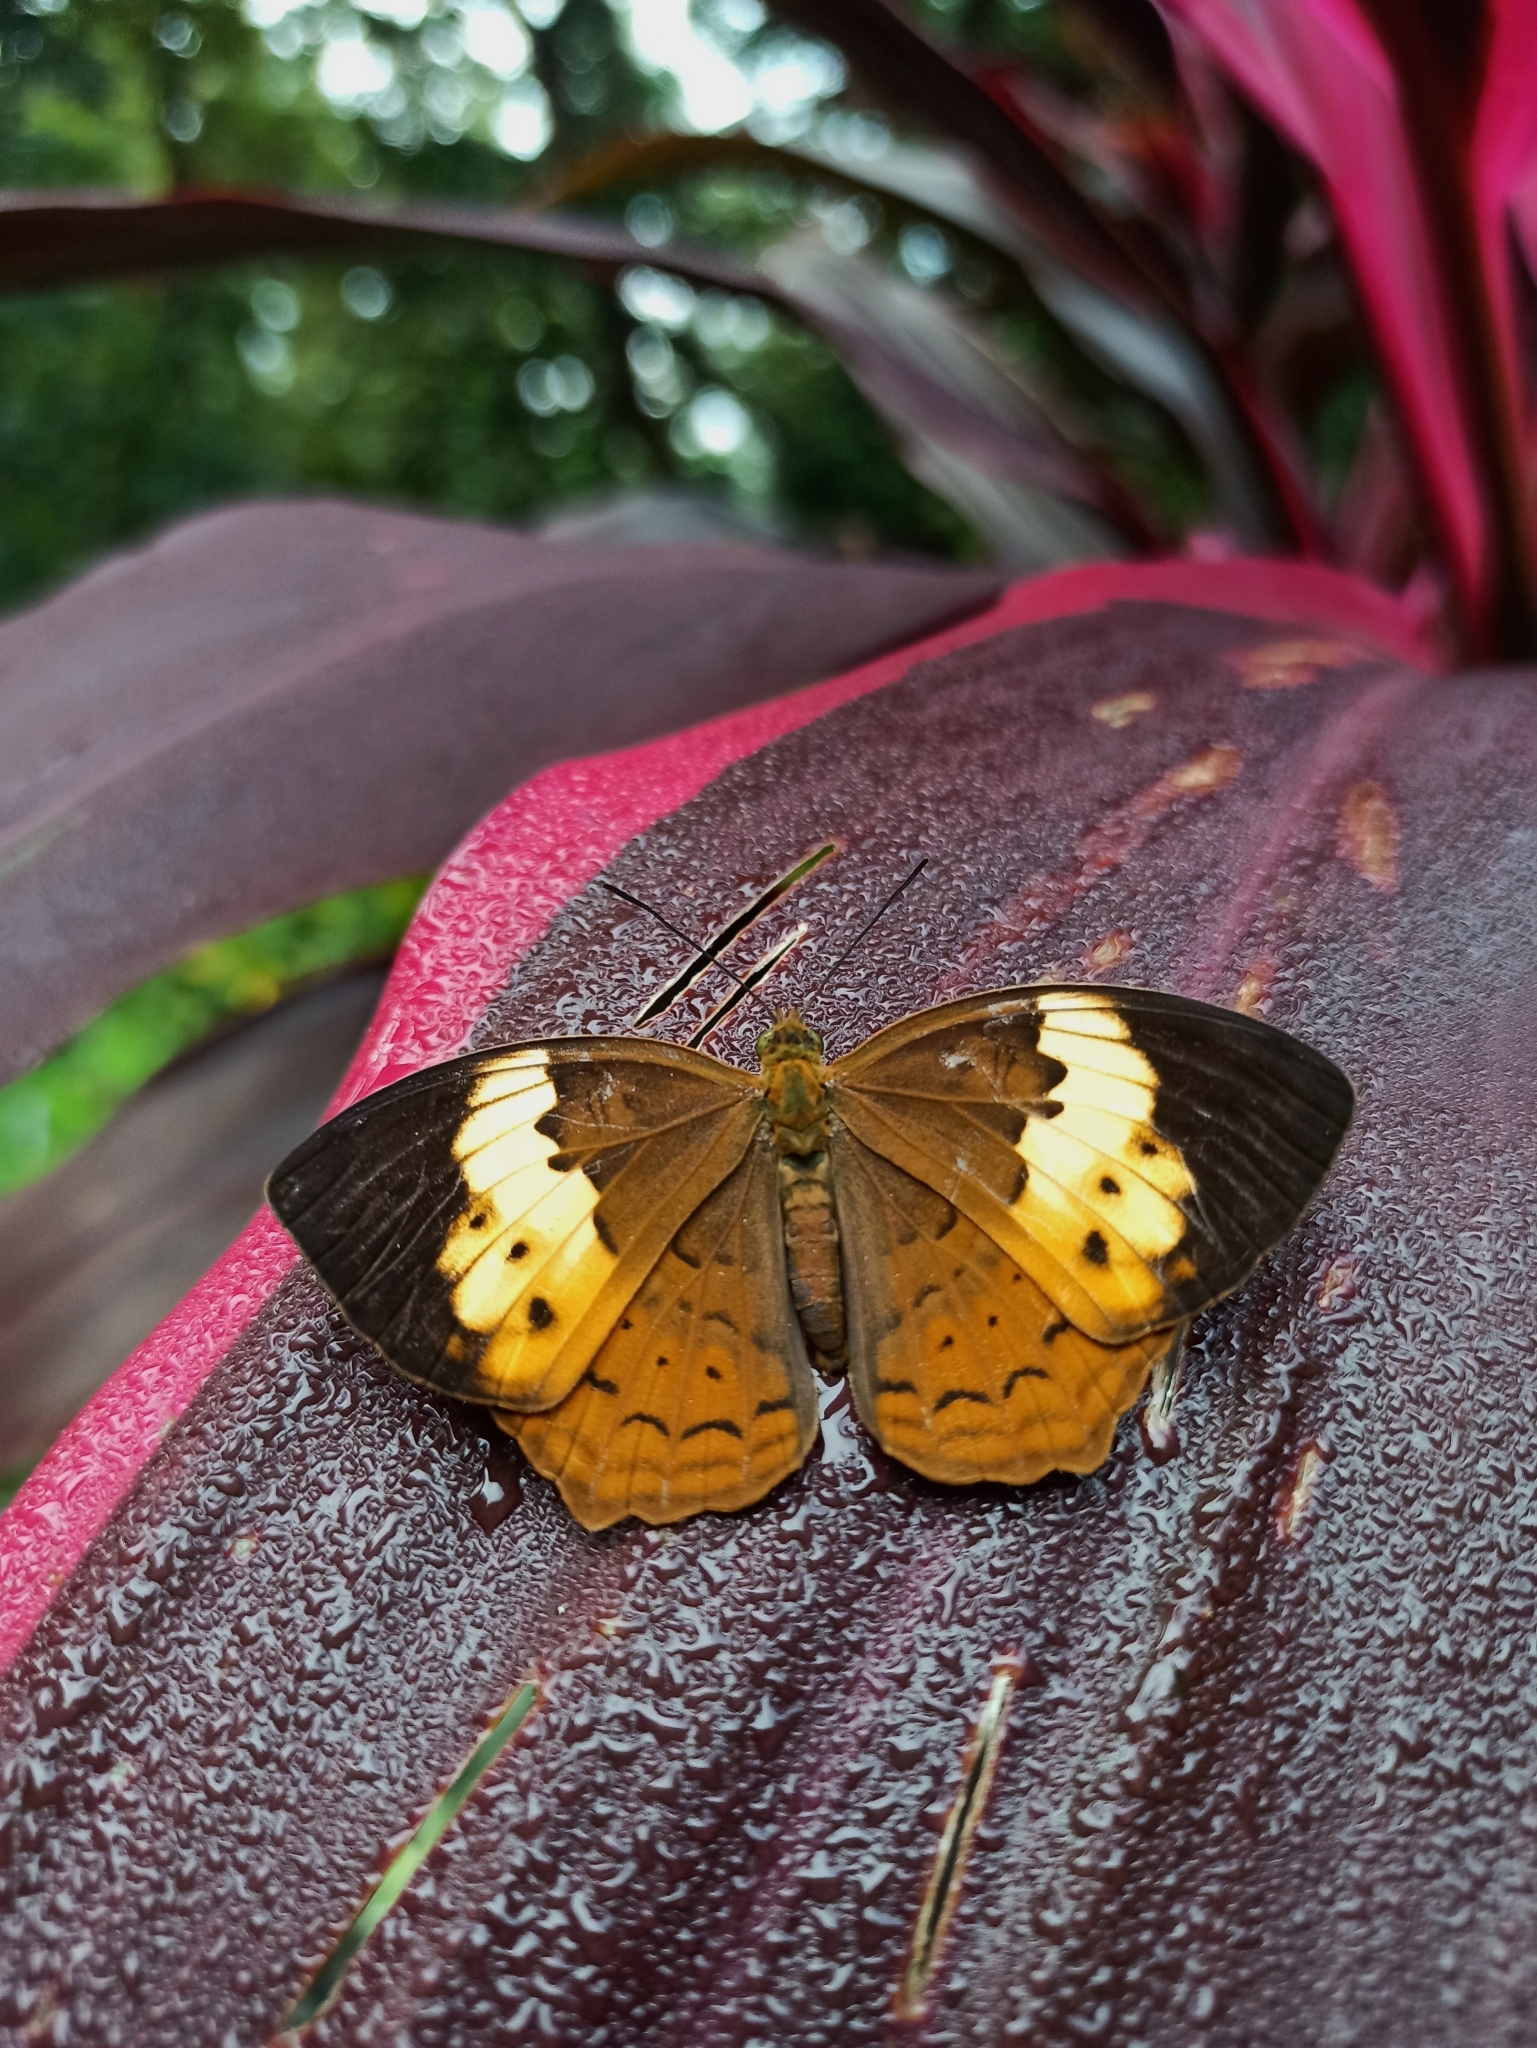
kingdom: Animalia
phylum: Arthropoda
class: Insecta
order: Lepidoptera
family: Nymphalidae
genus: Cupha
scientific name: Cupha erymanthis
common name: Rustic
